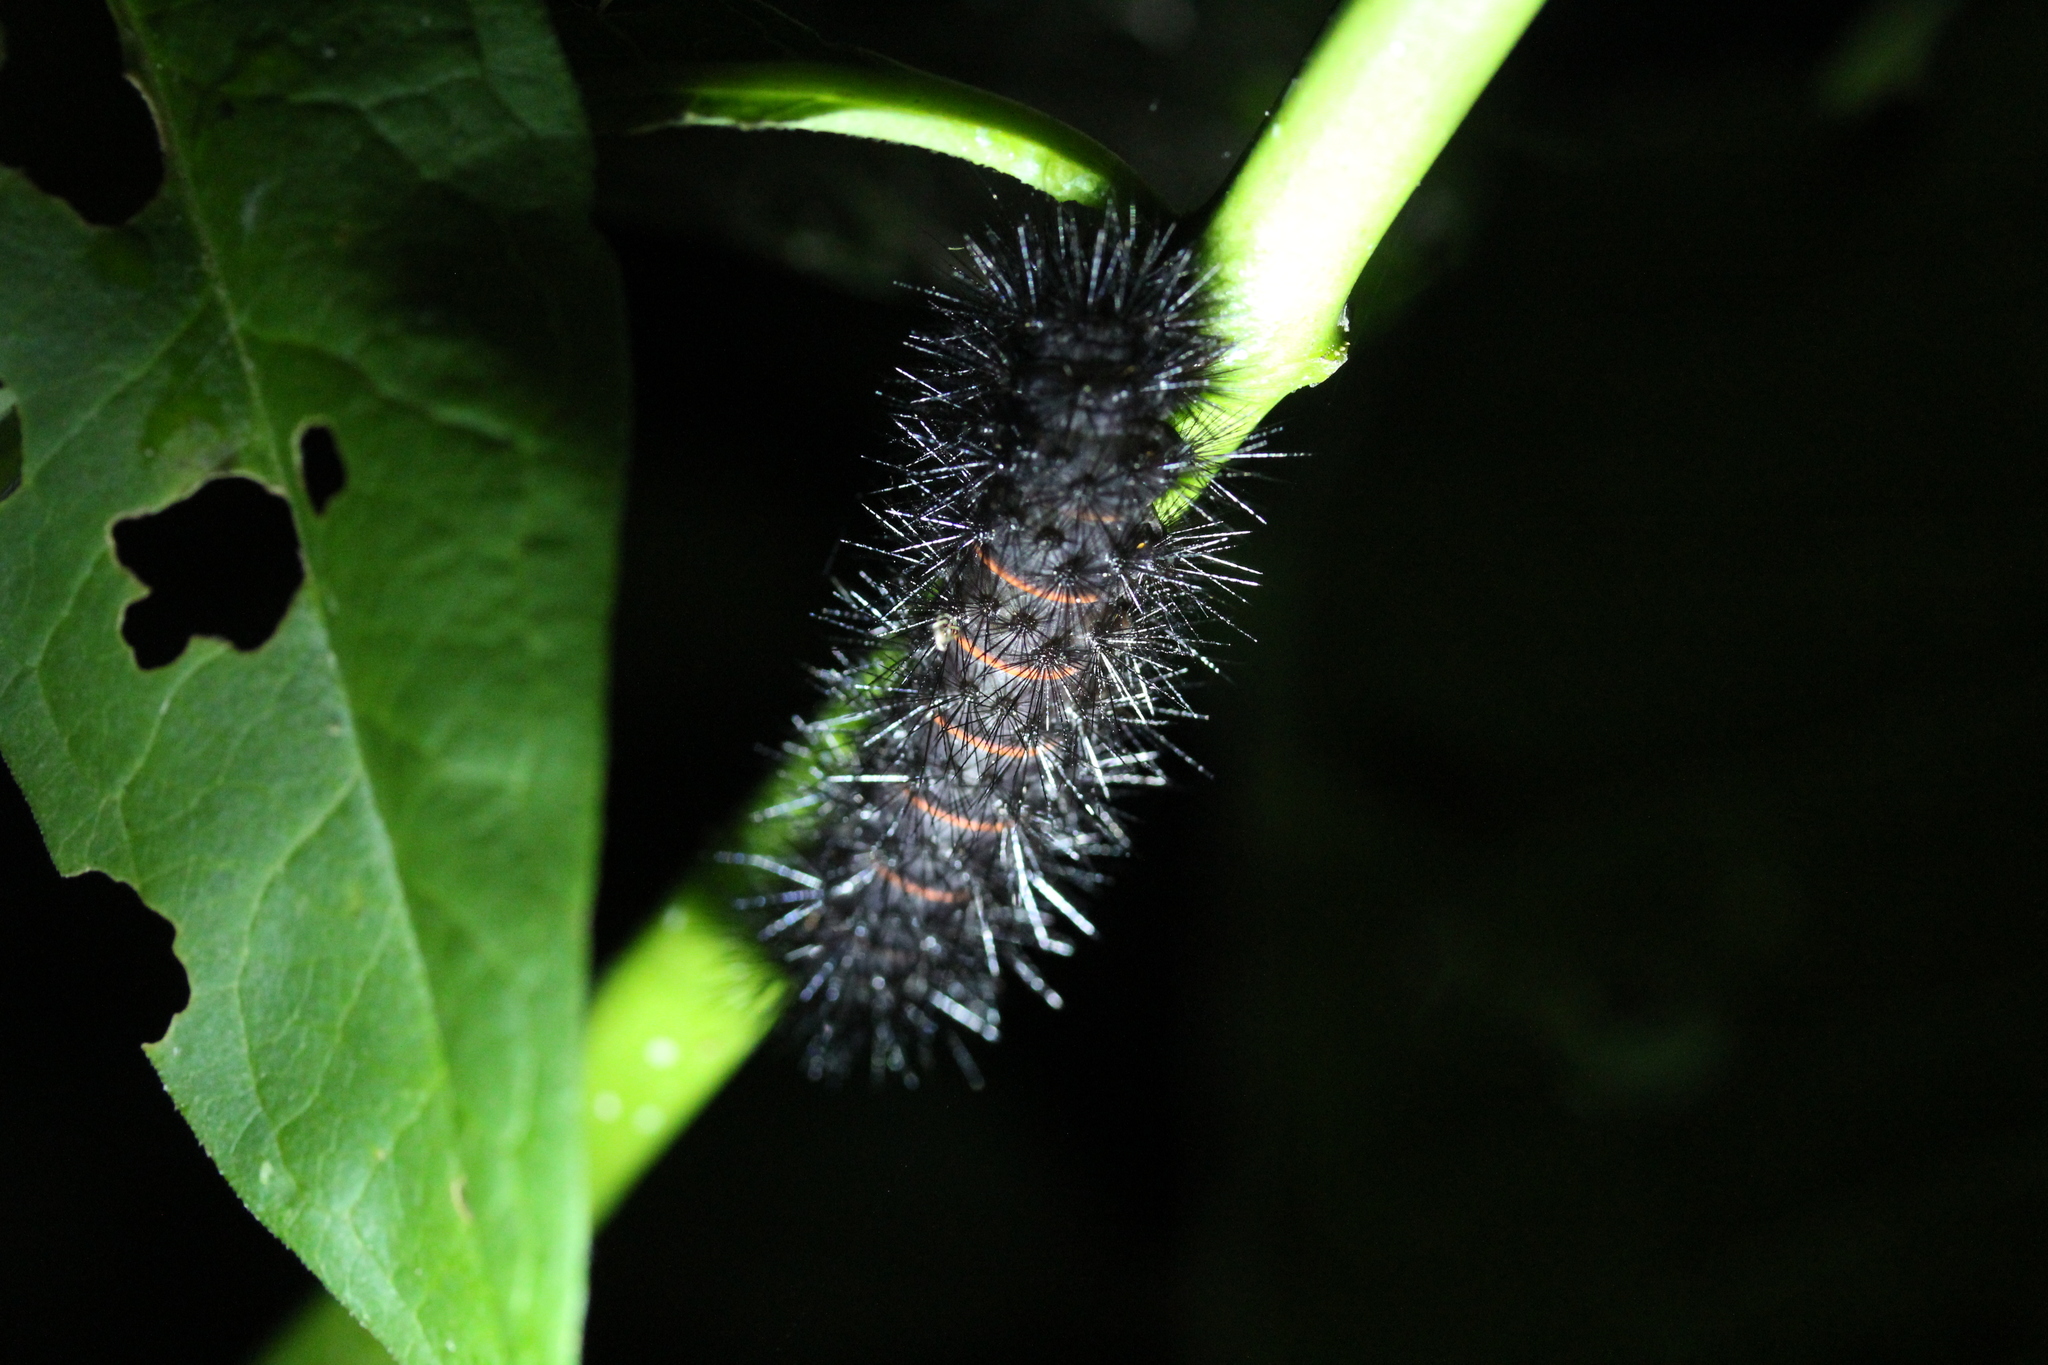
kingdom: Animalia
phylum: Arthropoda
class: Insecta
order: Lepidoptera
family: Erebidae
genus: Hypercompe
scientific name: Hypercompe scribonia
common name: Giant leopard moth
